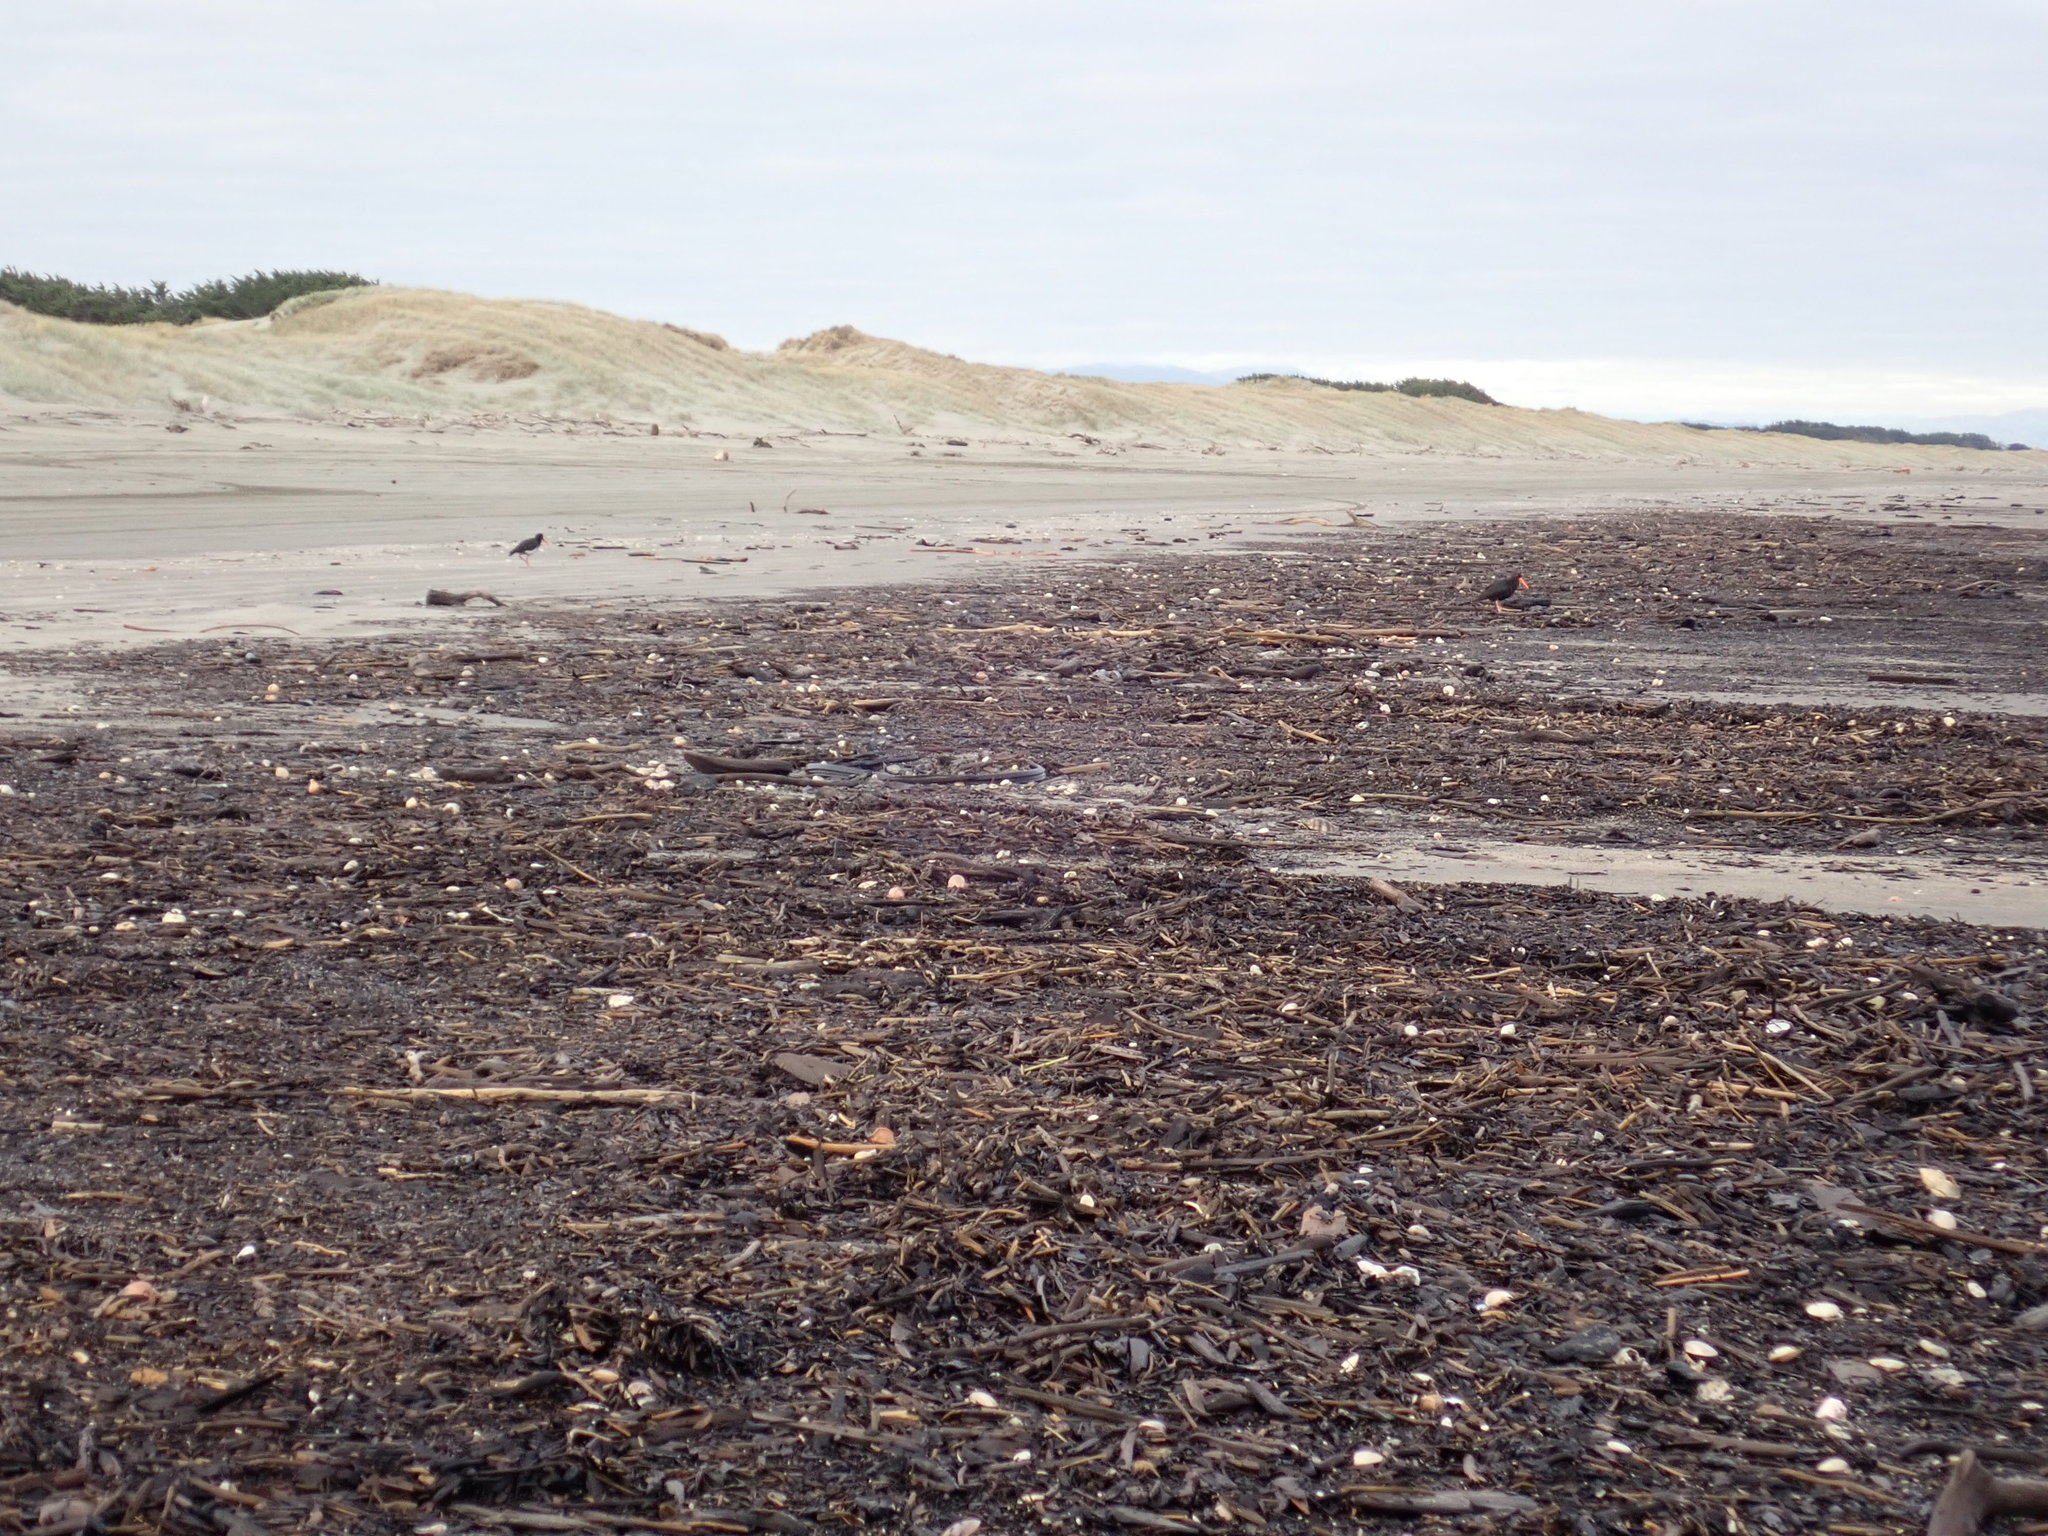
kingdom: Animalia
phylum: Chordata
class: Aves
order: Charadriiformes
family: Haematopodidae
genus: Haematopus
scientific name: Haematopus unicolor
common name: Variable oystercatcher
